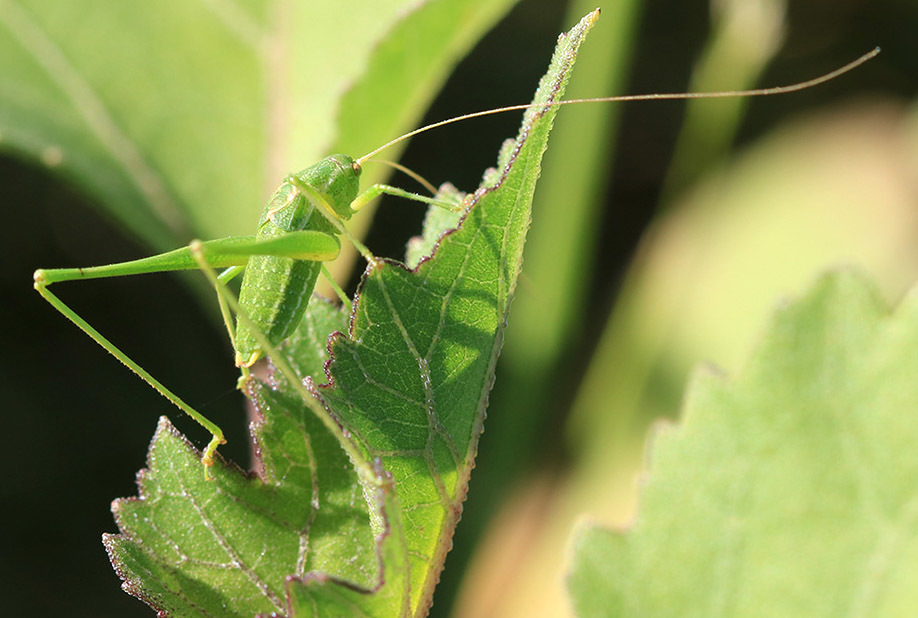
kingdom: Animalia
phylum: Arthropoda
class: Insecta
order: Orthoptera
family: Tettigoniidae
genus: Anisophya
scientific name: Anisophya punctinervis
